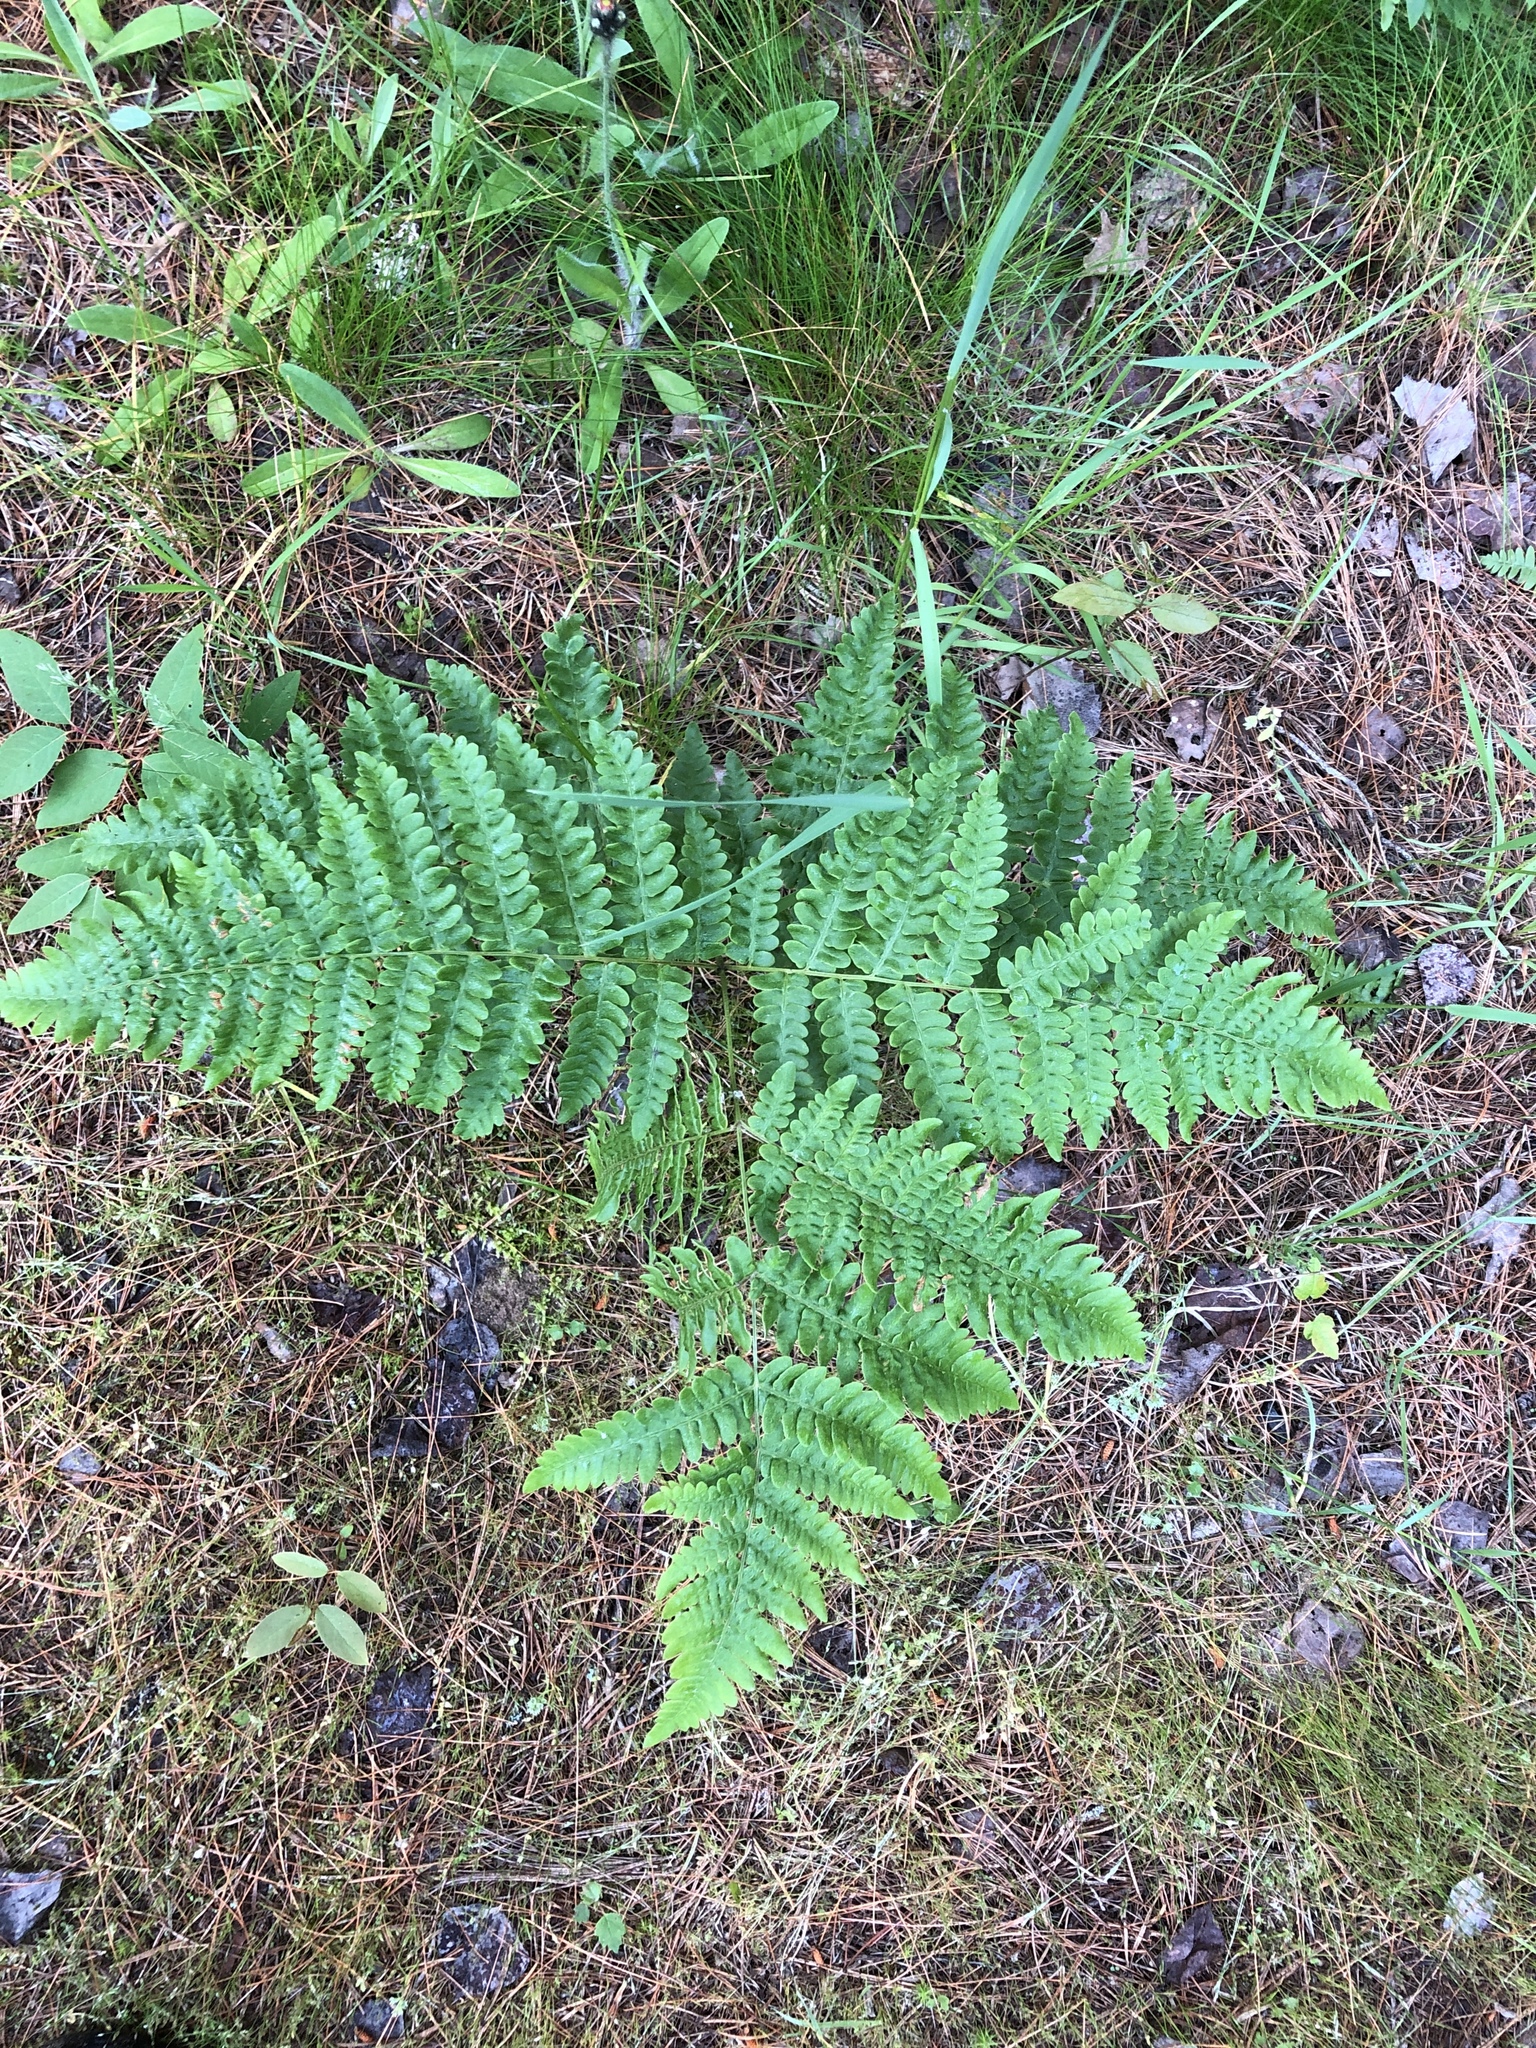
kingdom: Plantae
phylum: Tracheophyta
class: Polypodiopsida
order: Polypodiales
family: Dennstaedtiaceae
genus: Pteridium
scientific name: Pteridium aquilinum
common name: Bracken
